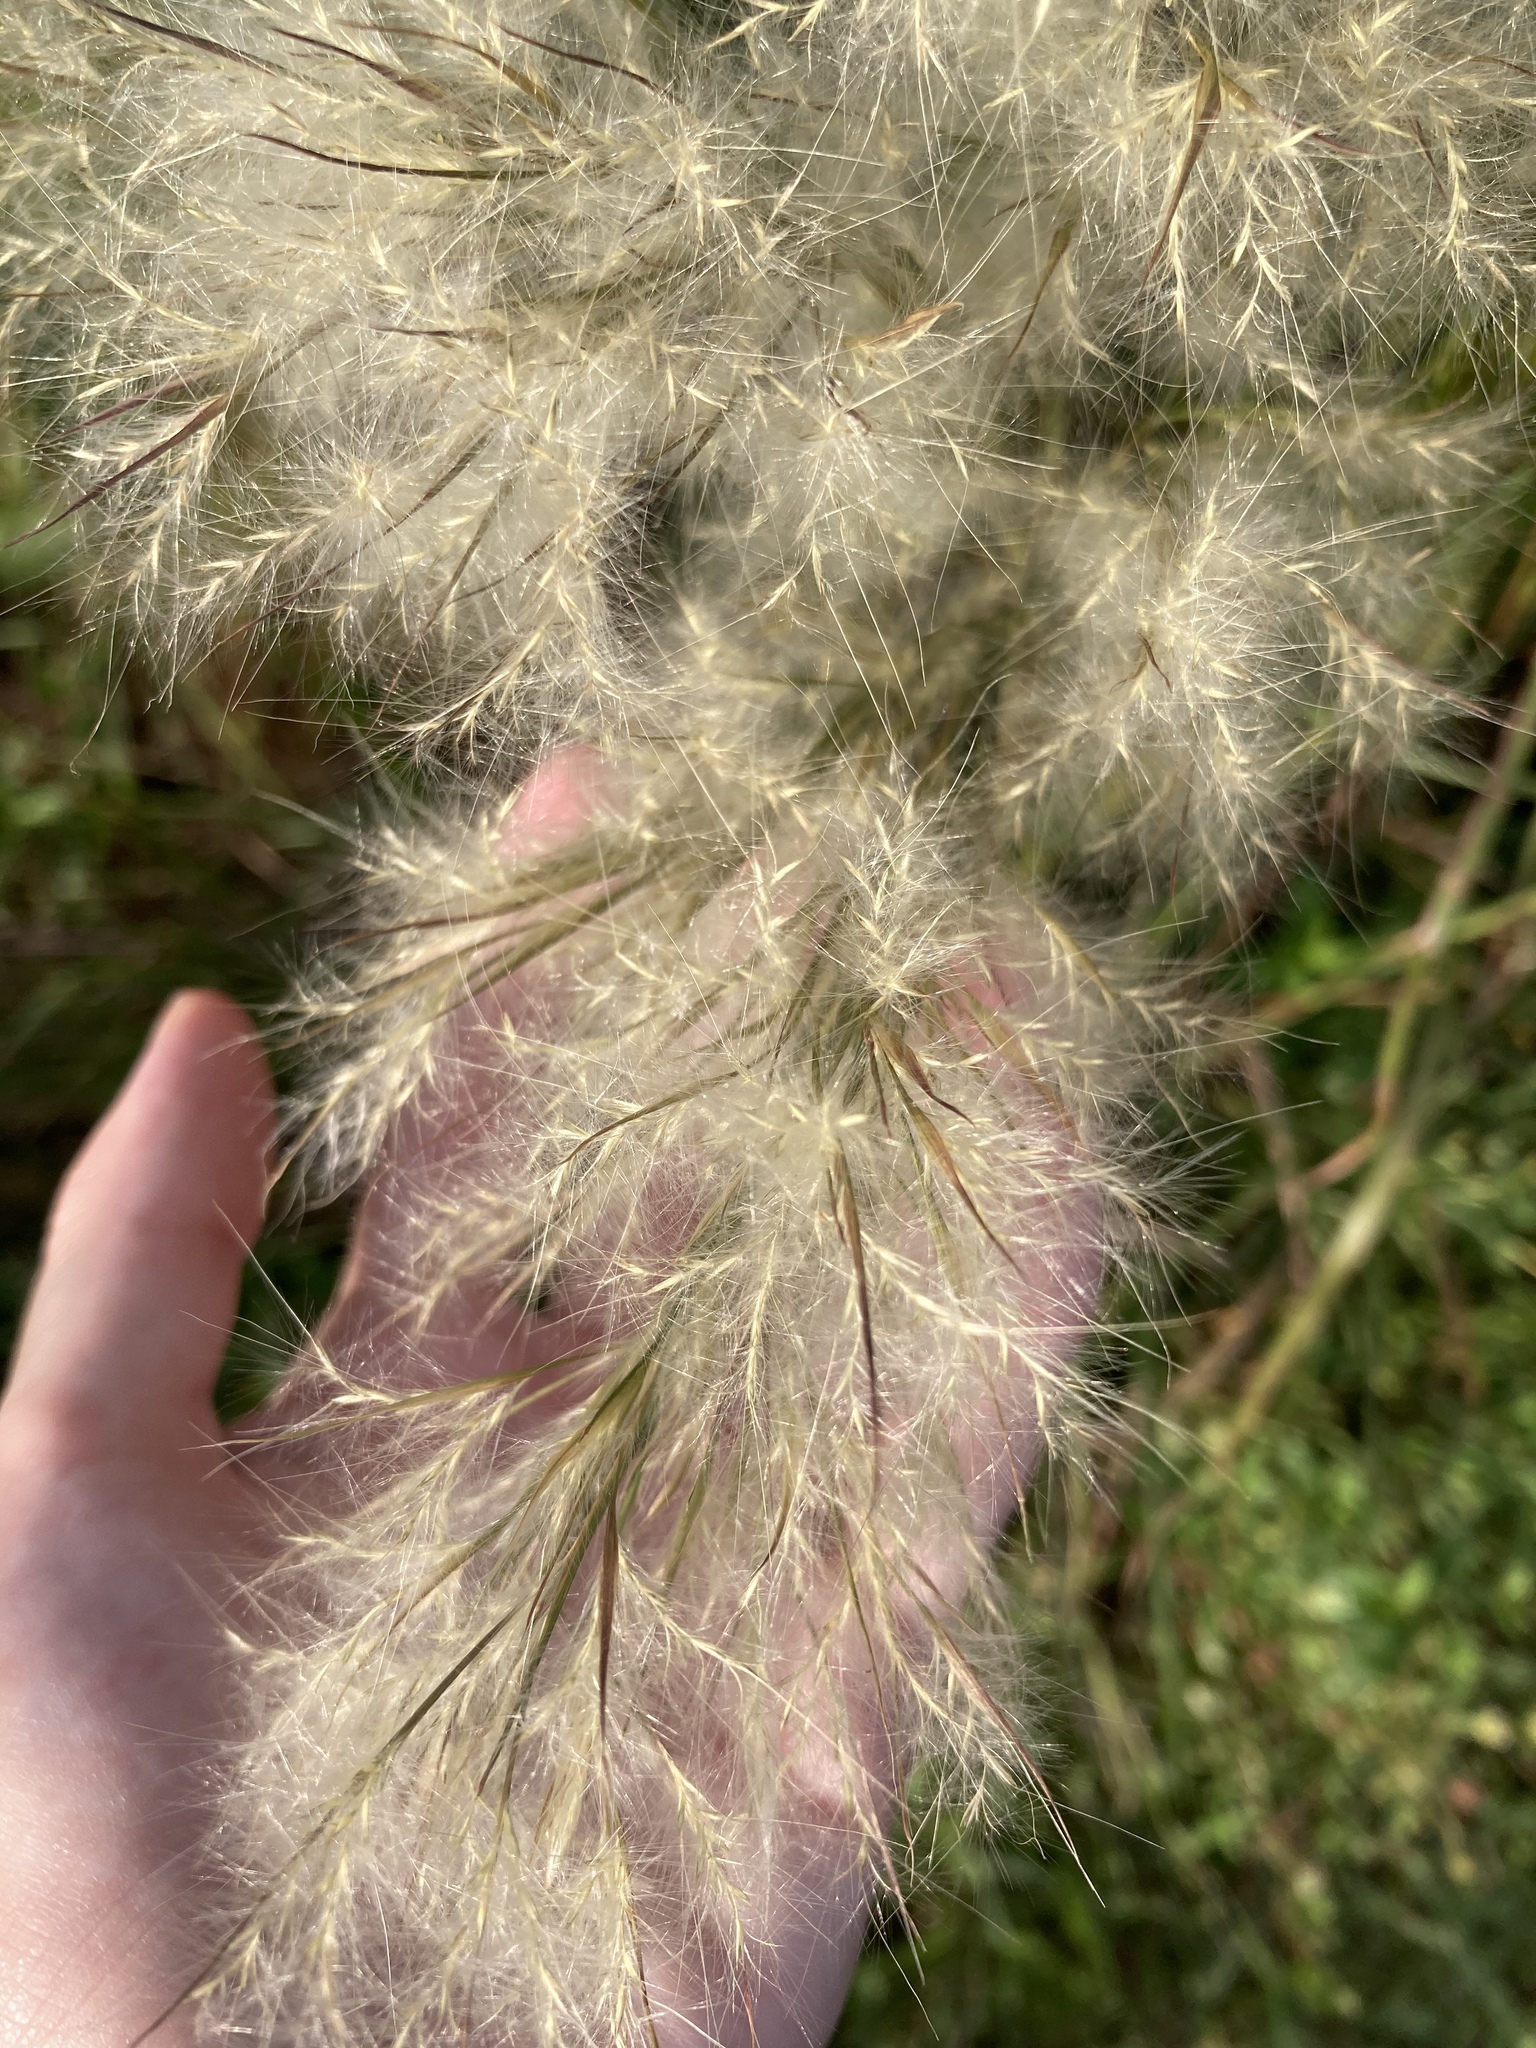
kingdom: Plantae
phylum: Tracheophyta
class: Liliopsida
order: Poales
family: Poaceae
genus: Andropogon
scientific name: Andropogon tenuispatheus
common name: Bushy bluestem
